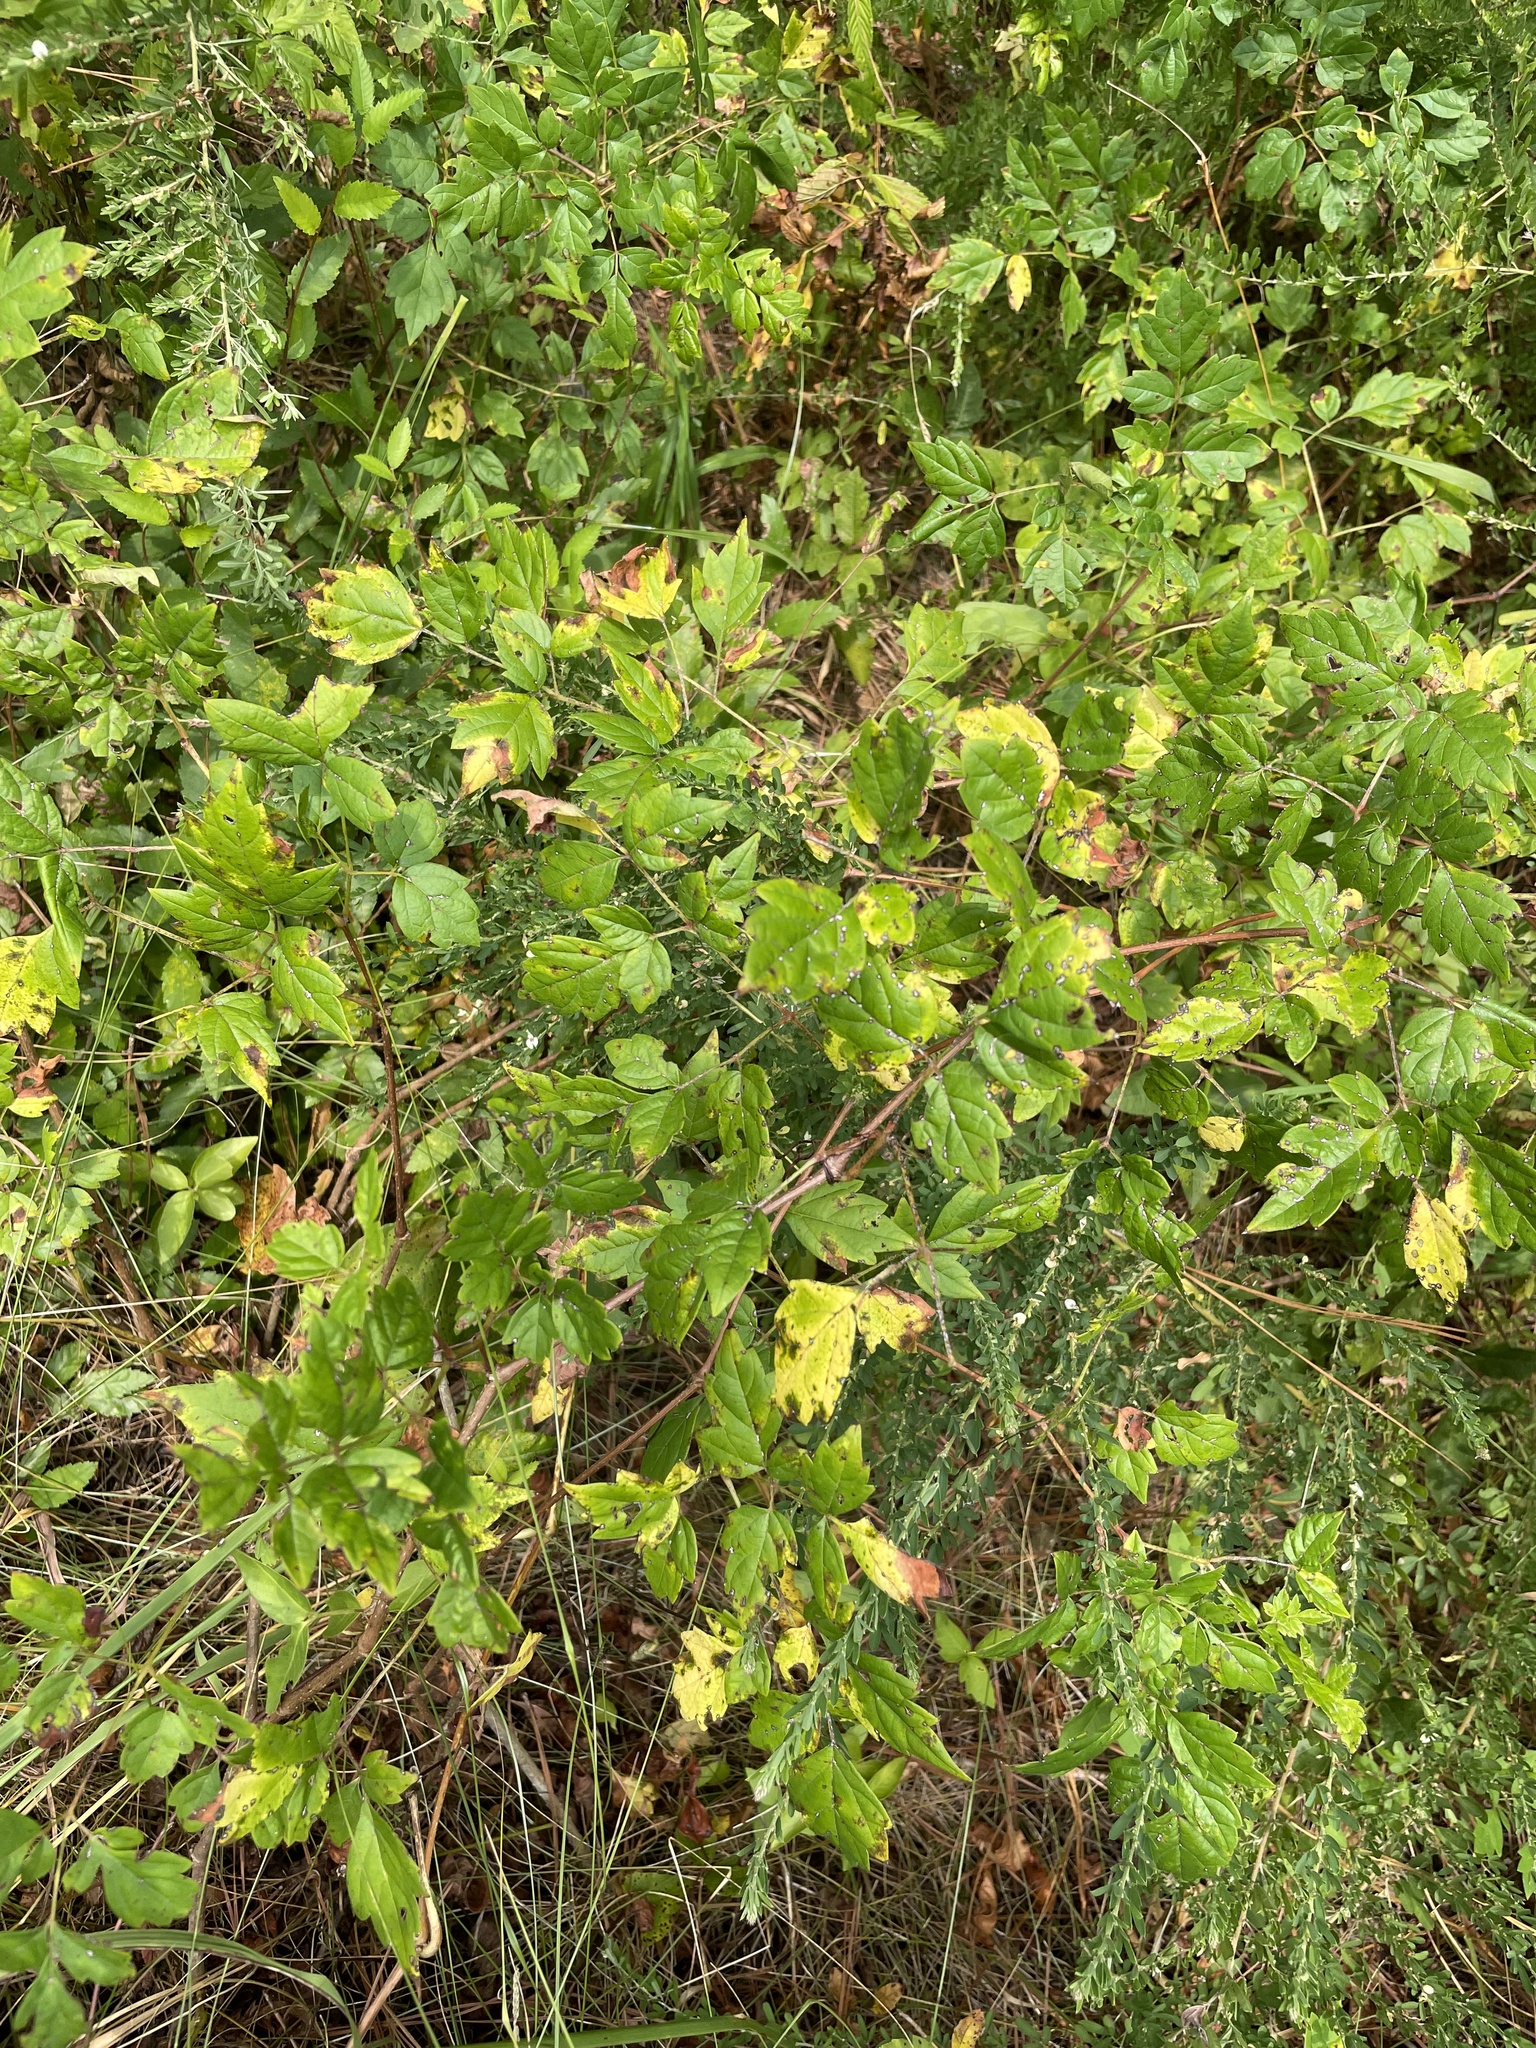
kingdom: Plantae
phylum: Tracheophyta
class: Magnoliopsida
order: Vitales
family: Vitaceae
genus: Nekemias
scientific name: Nekemias arborea
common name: Peppervine
